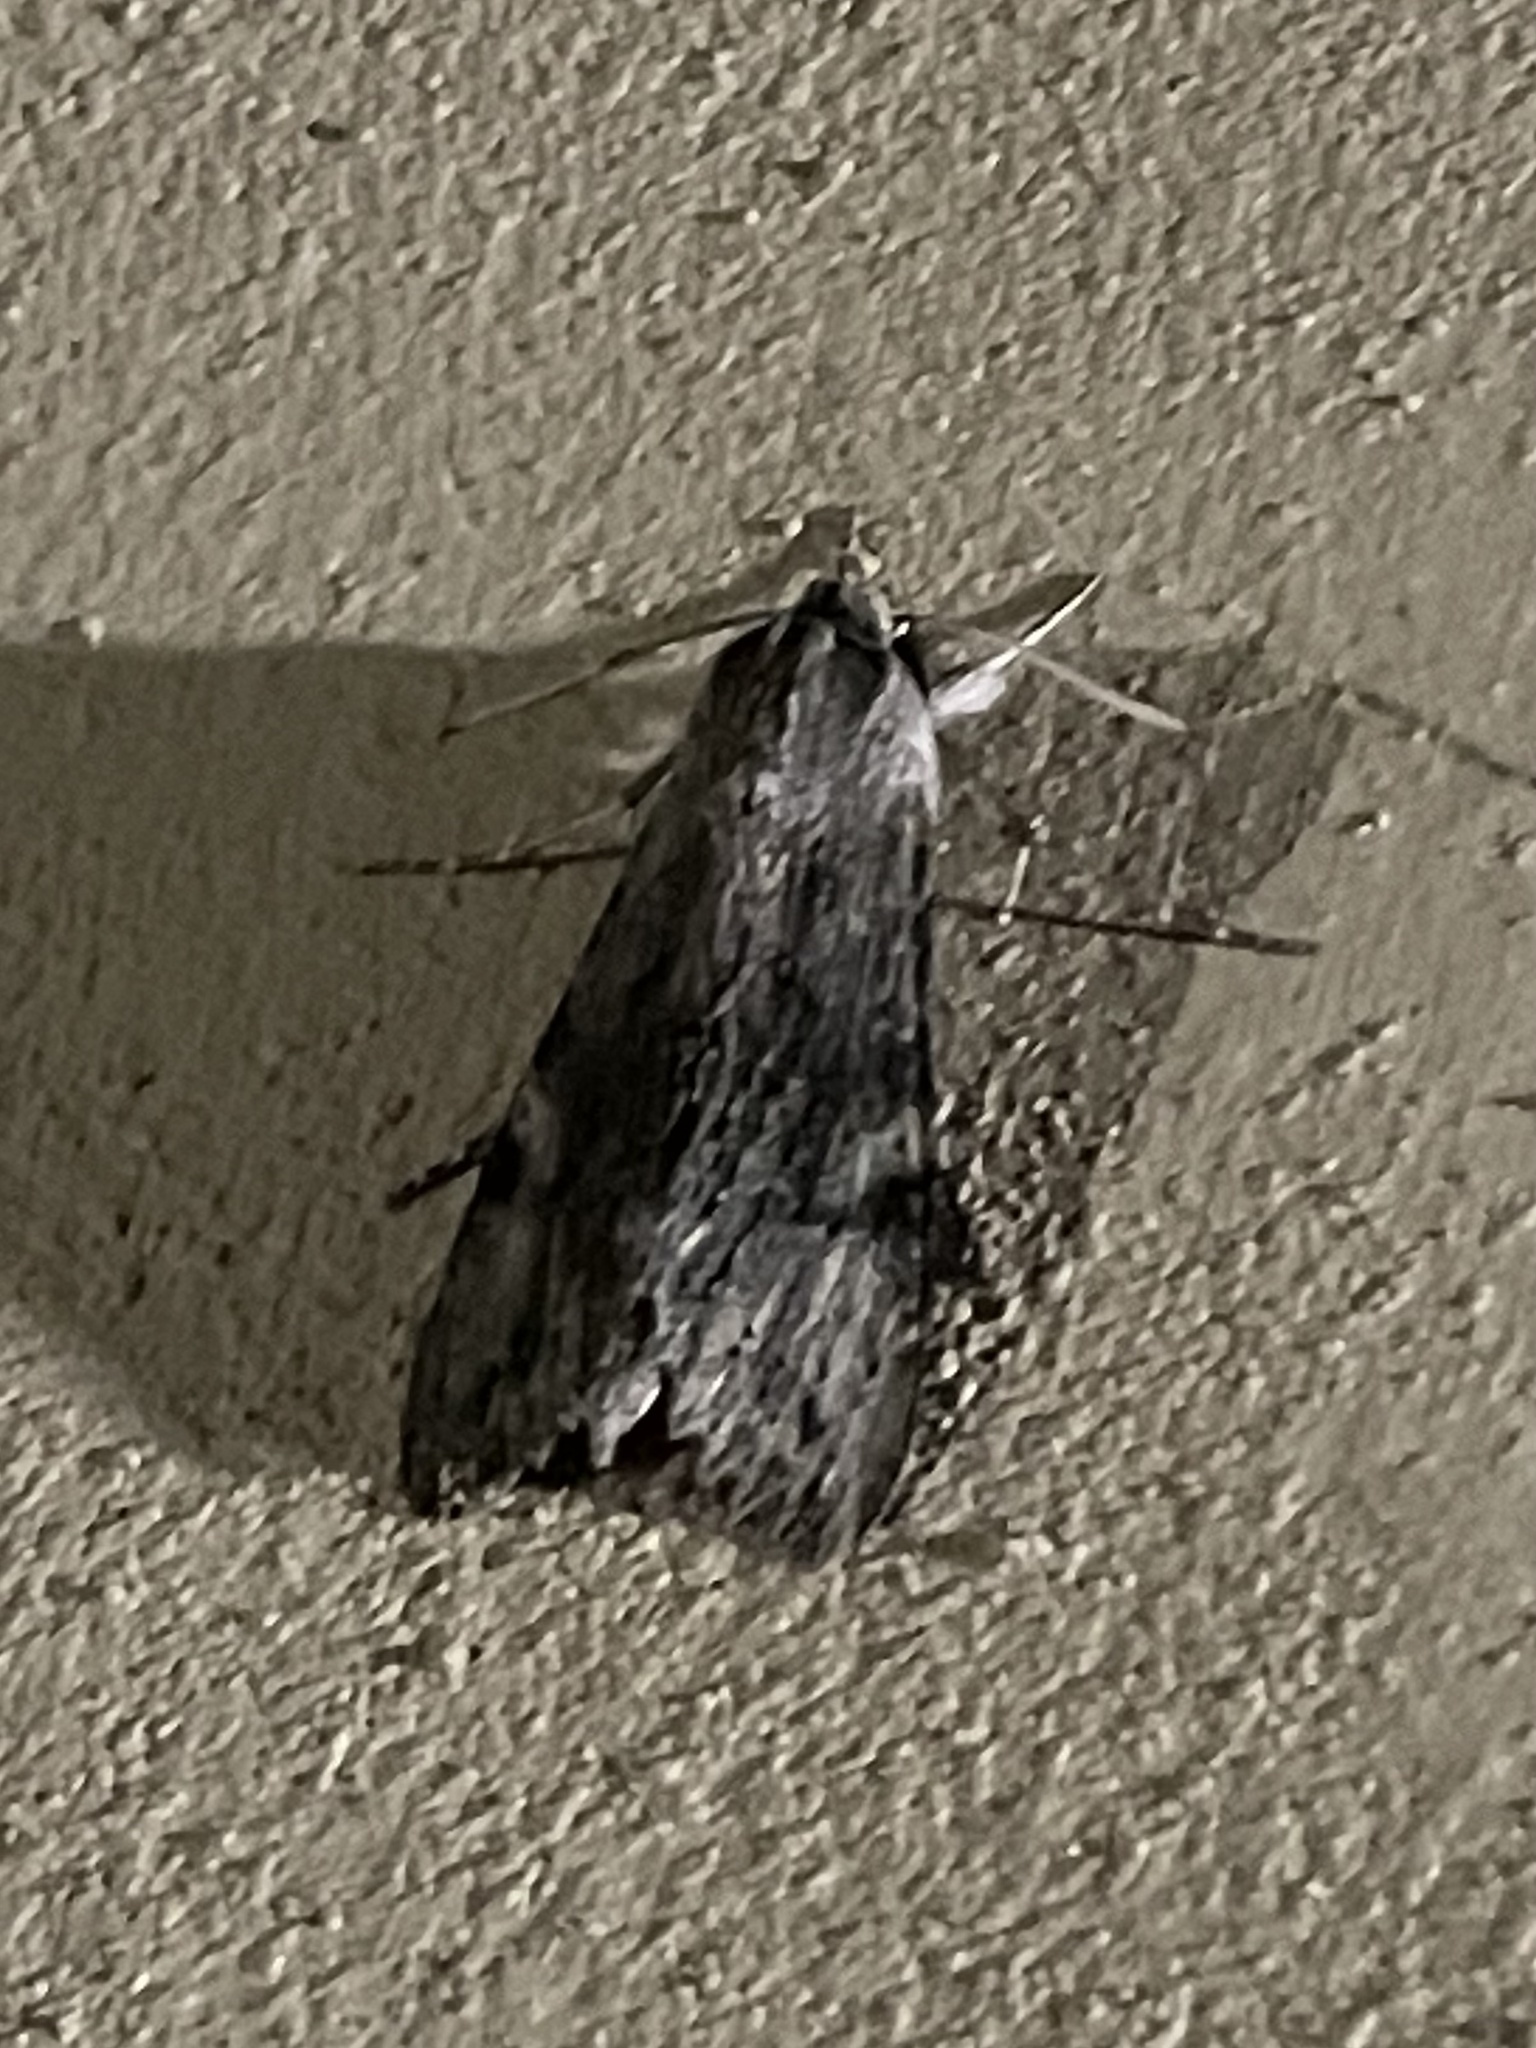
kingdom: Animalia
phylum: Arthropoda
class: Insecta
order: Lepidoptera
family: Sphingidae
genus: Erinnyis
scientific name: Erinnyis obscura
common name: Obscure sphinx
